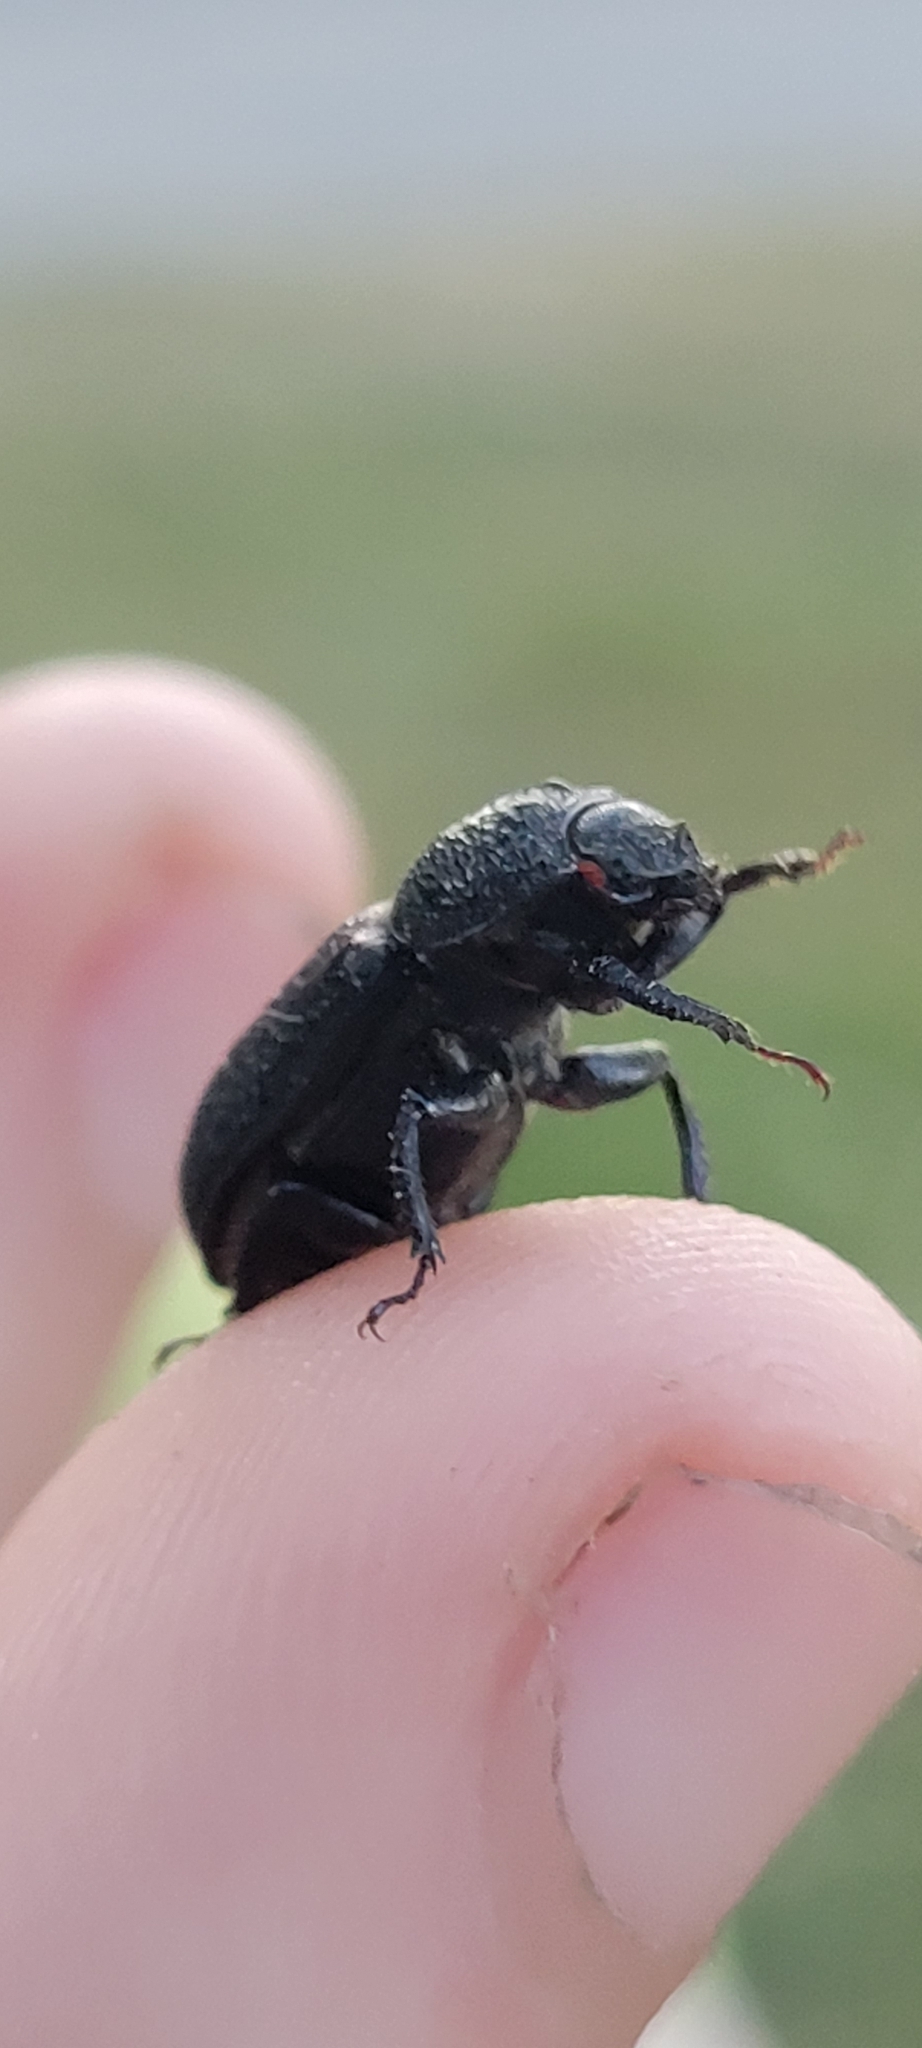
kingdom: Animalia
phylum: Arthropoda
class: Insecta
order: Coleoptera
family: Lucanidae
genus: Sinodendron
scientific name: Sinodendron rugosum
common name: Rugose stag beelte
